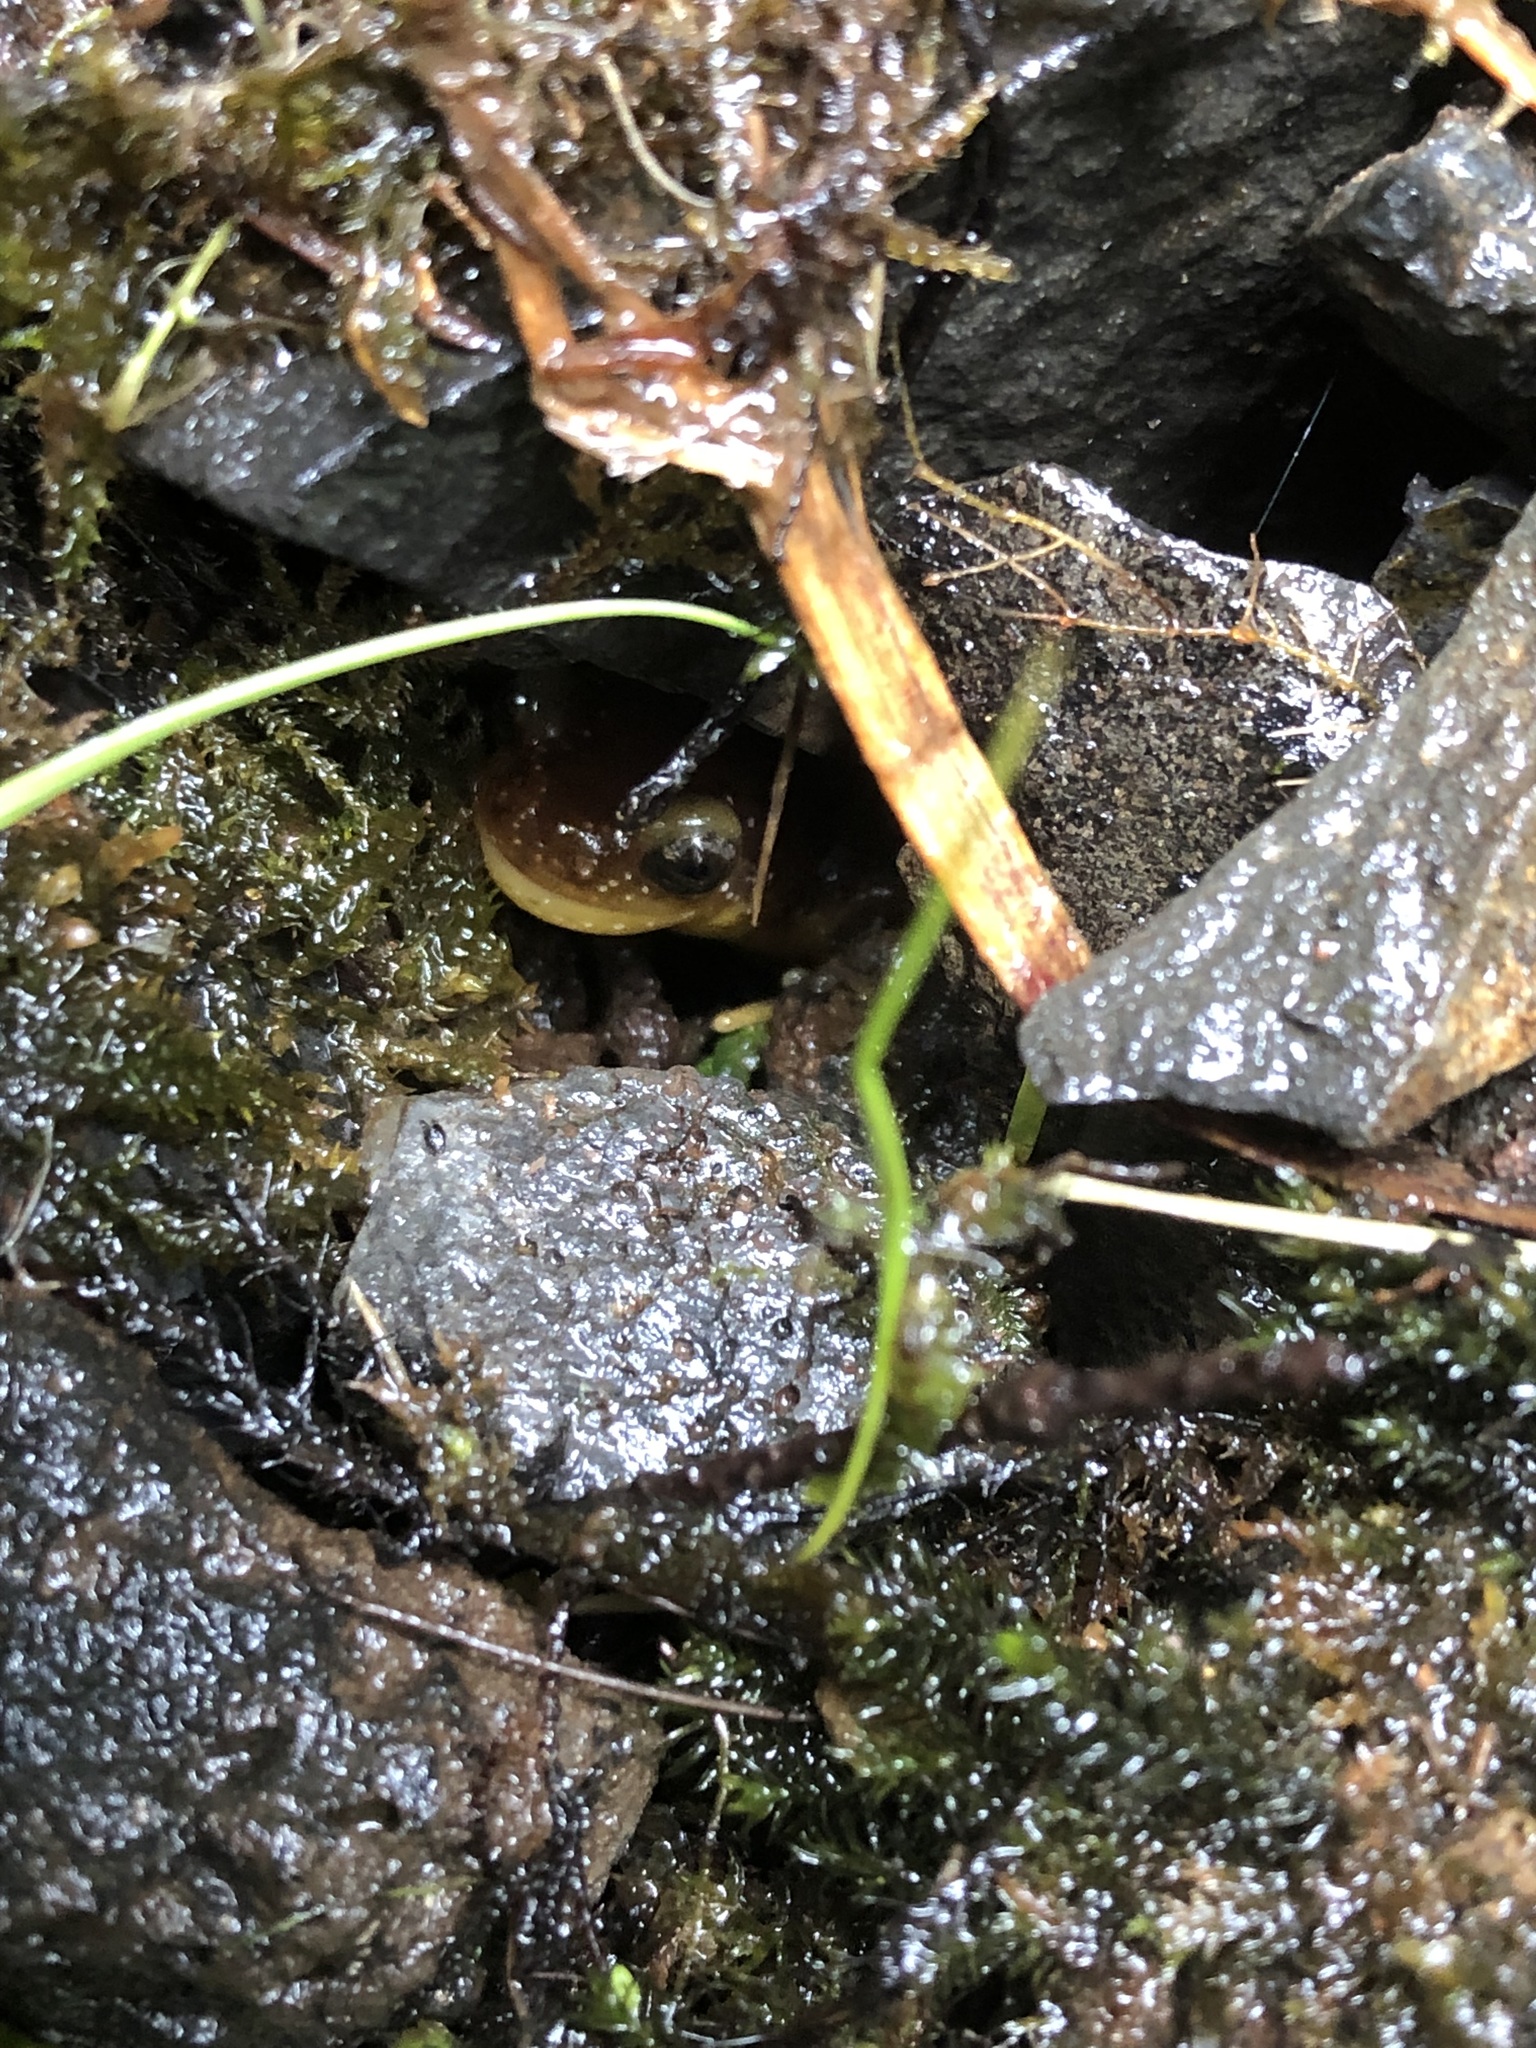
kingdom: Animalia
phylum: Chordata
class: Amphibia
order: Caudata
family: Rhyacotritonidae
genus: Rhyacotriton
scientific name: Rhyacotriton kezeri
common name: Columbia torrent salamander
